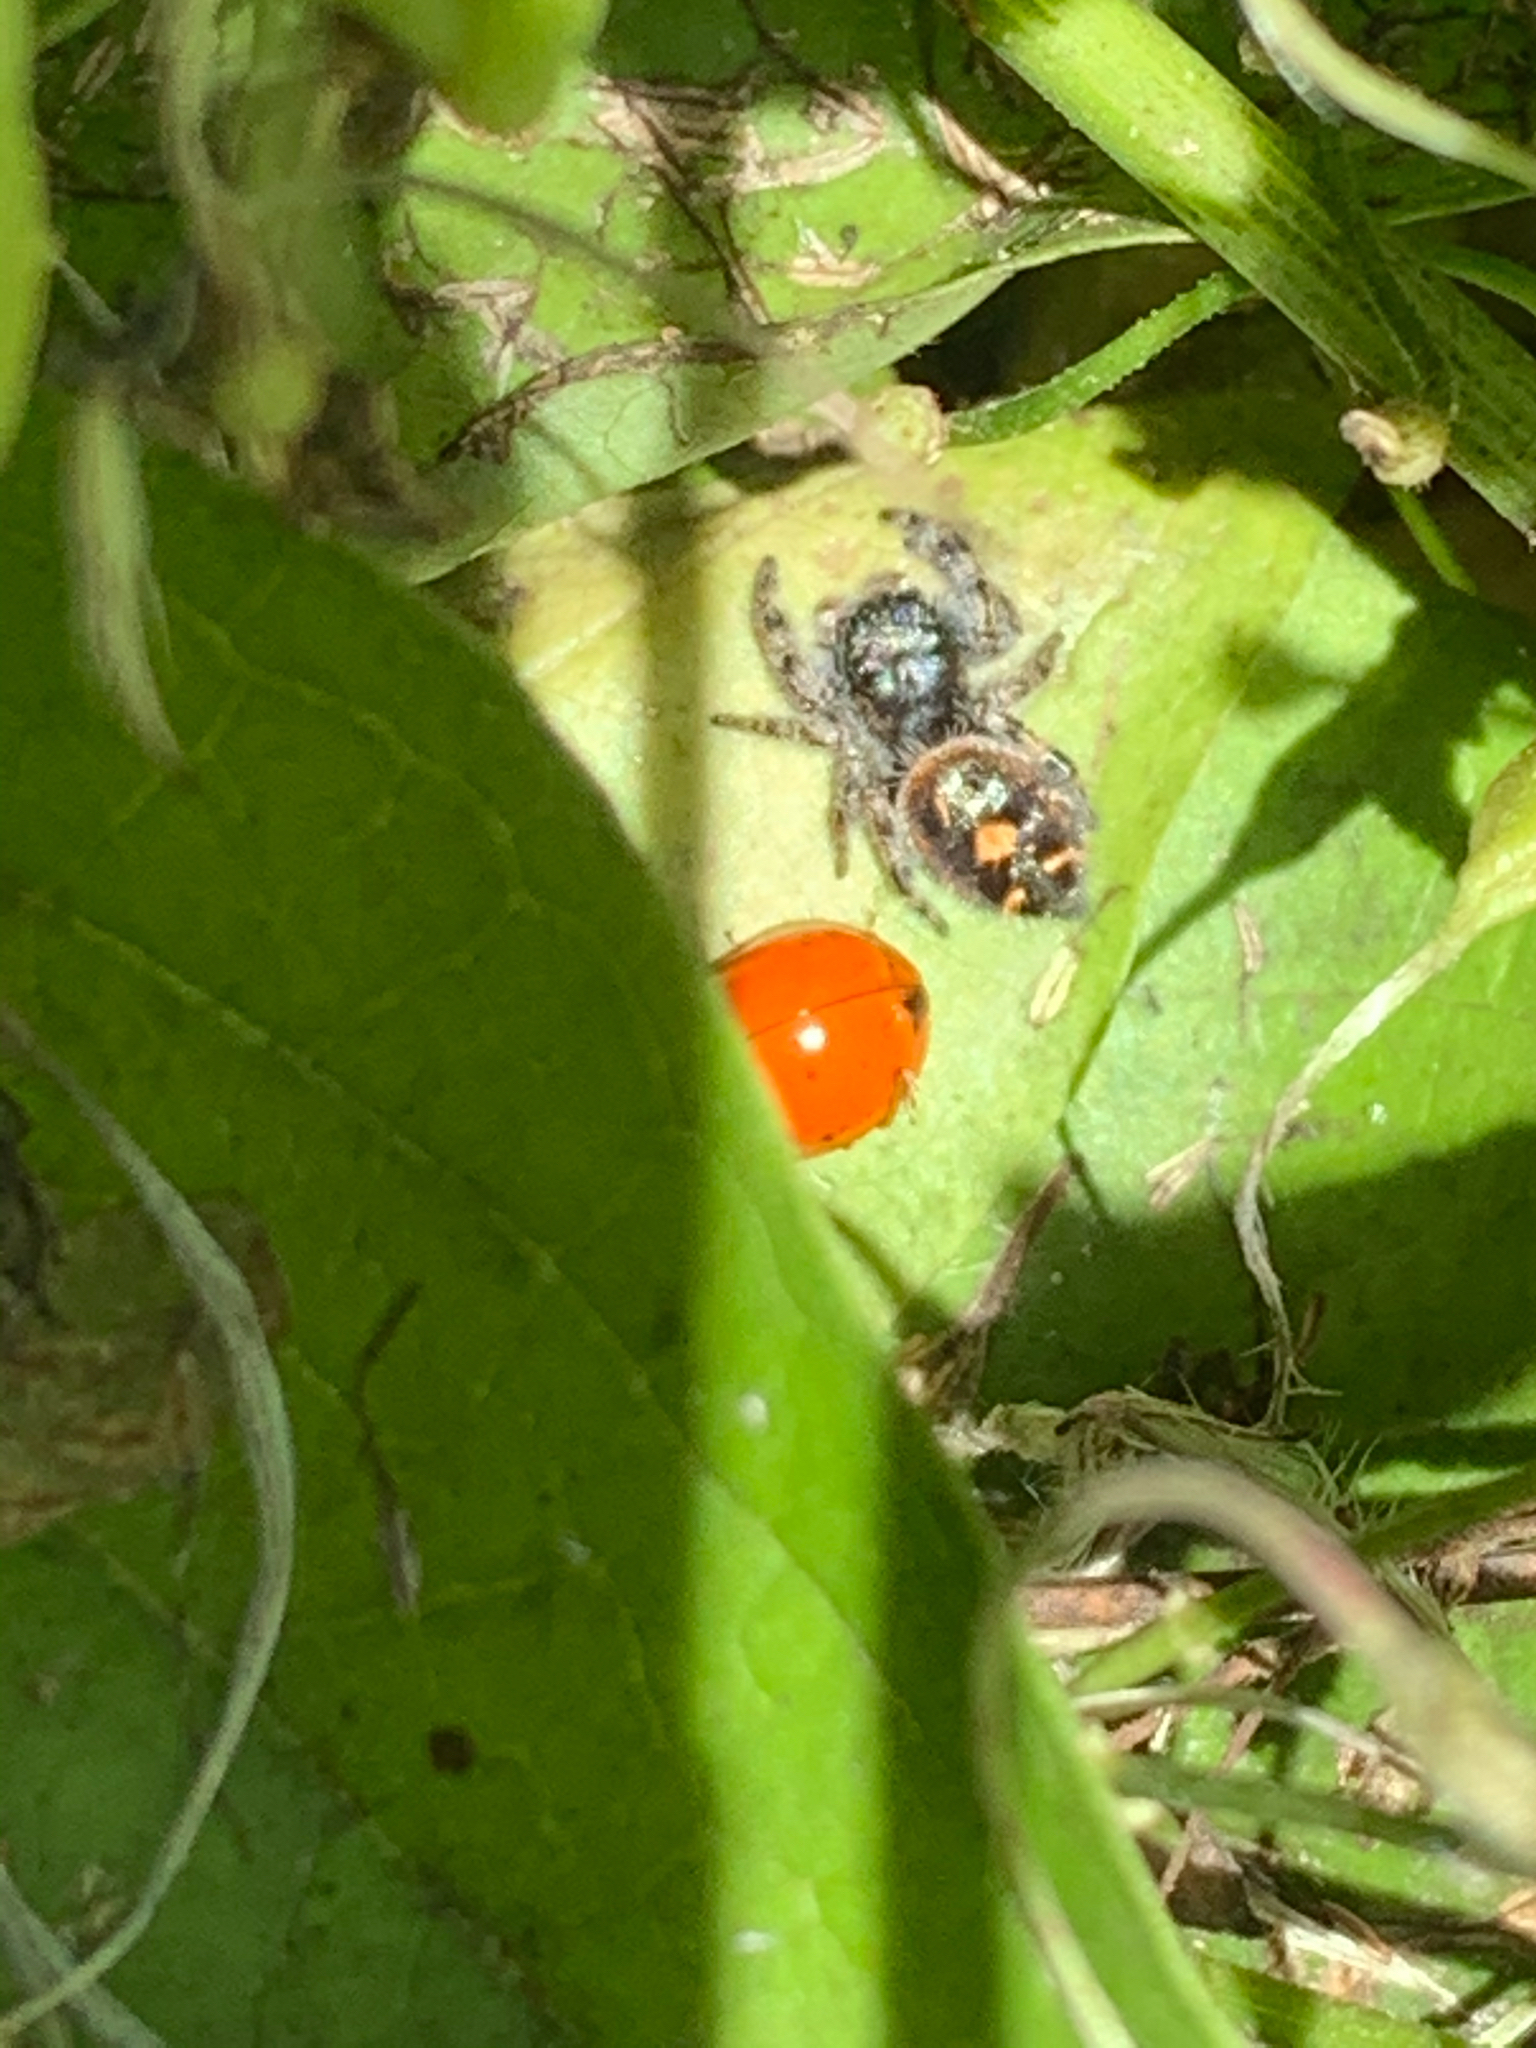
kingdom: Animalia
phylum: Arthropoda
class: Arachnida
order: Araneae
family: Salticidae
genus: Phidippus
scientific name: Phidippus audax
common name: Bold jumper
